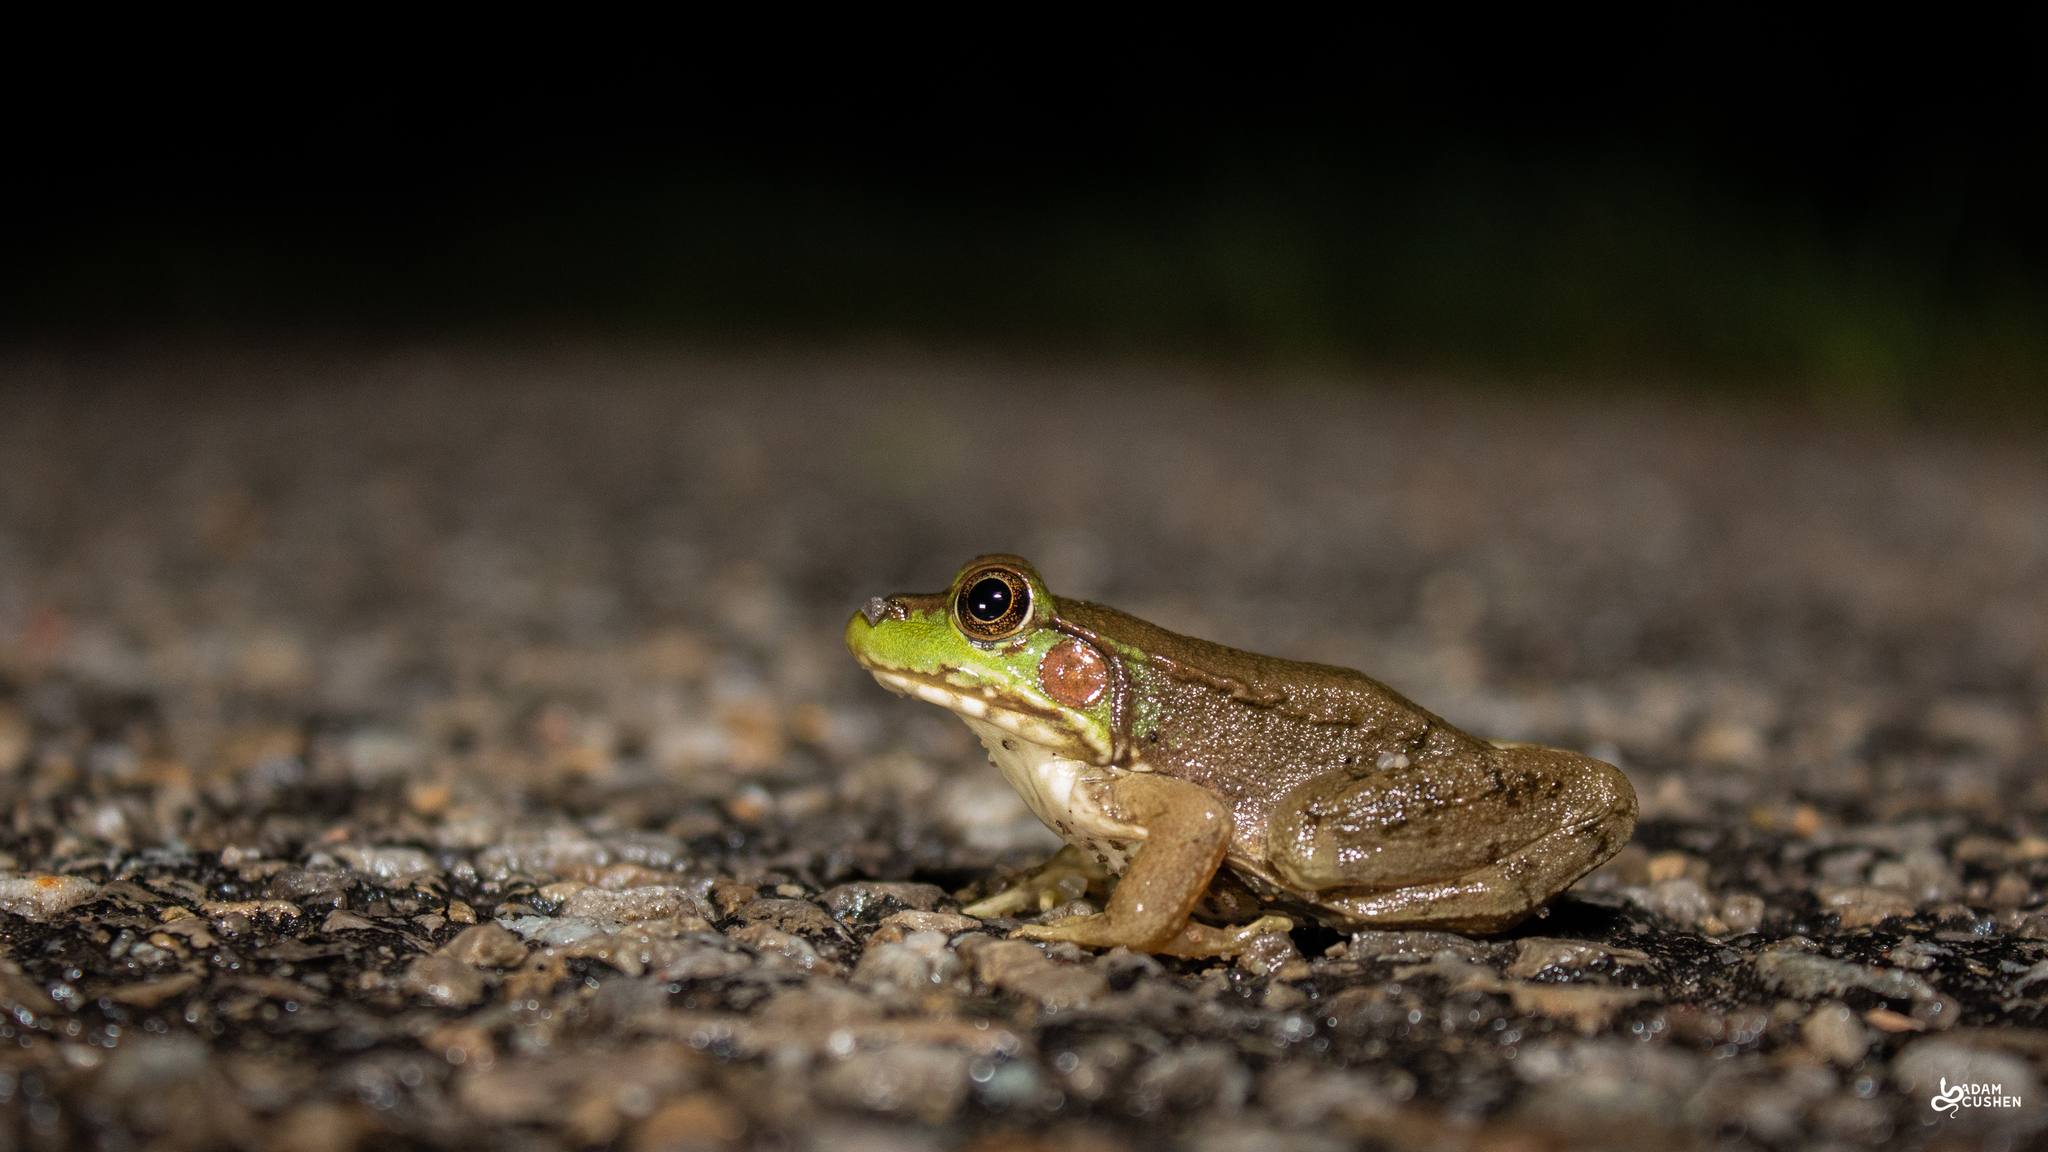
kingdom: Animalia
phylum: Chordata
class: Amphibia
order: Anura
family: Ranidae
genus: Lithobates
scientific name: Lithobates clamitans
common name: Green frog
